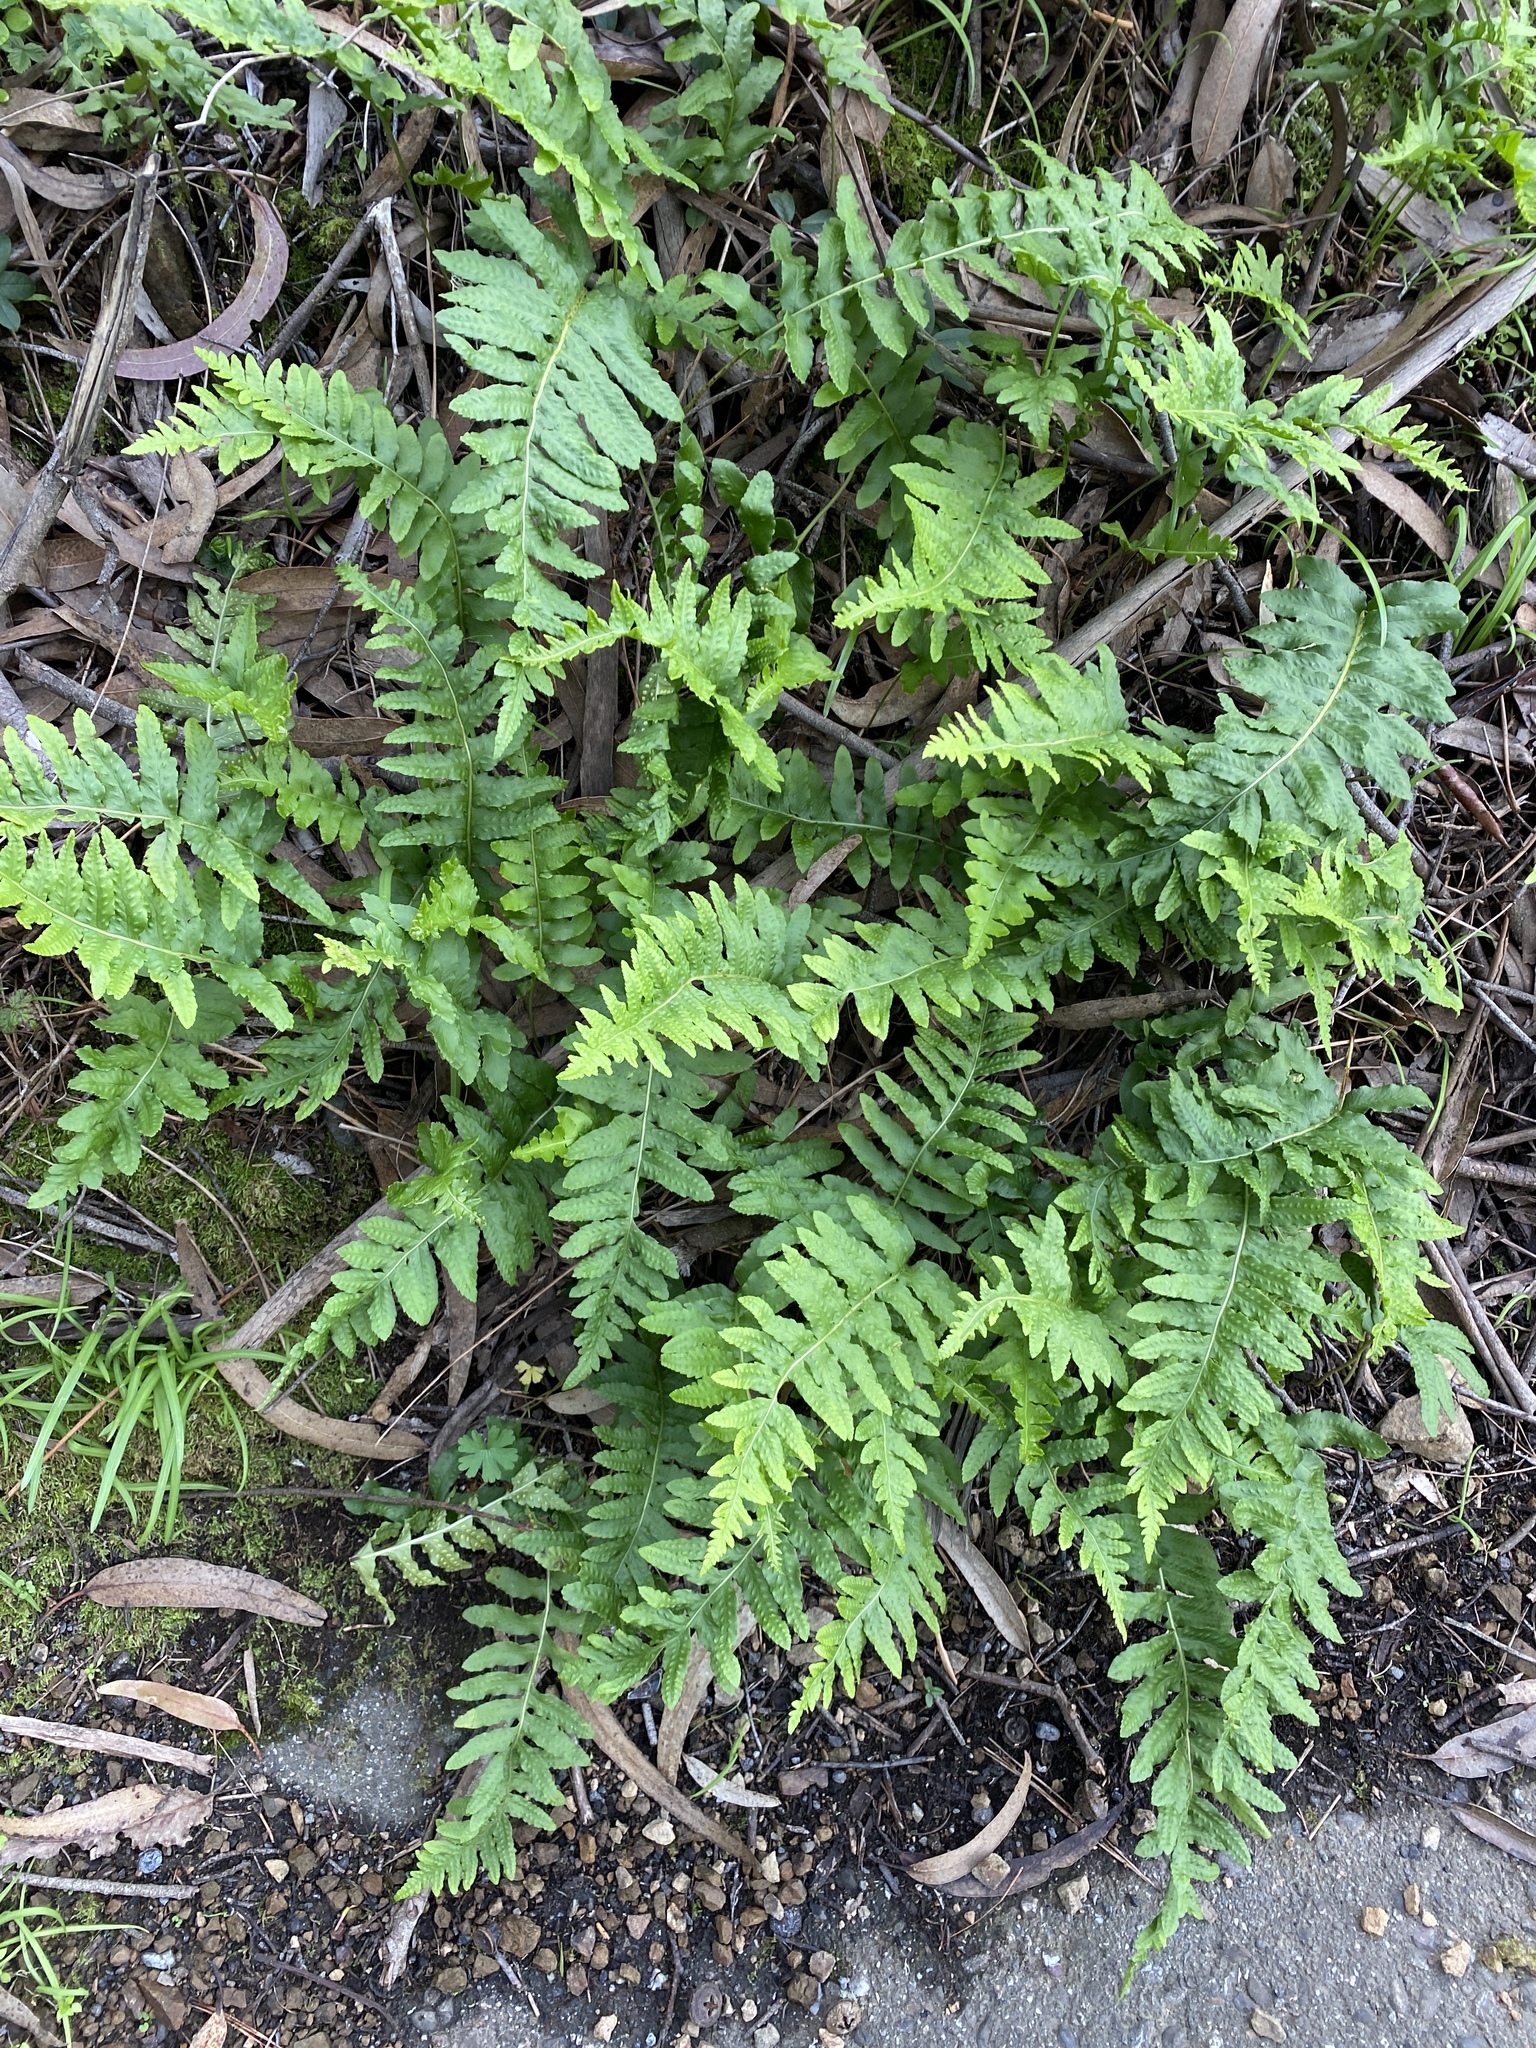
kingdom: Plantae
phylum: Tracheophyta
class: Polypodiopsida
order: Polypodiales
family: Polypodiaceae
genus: Polypodium
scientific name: Polypodium californicum
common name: California polypody
